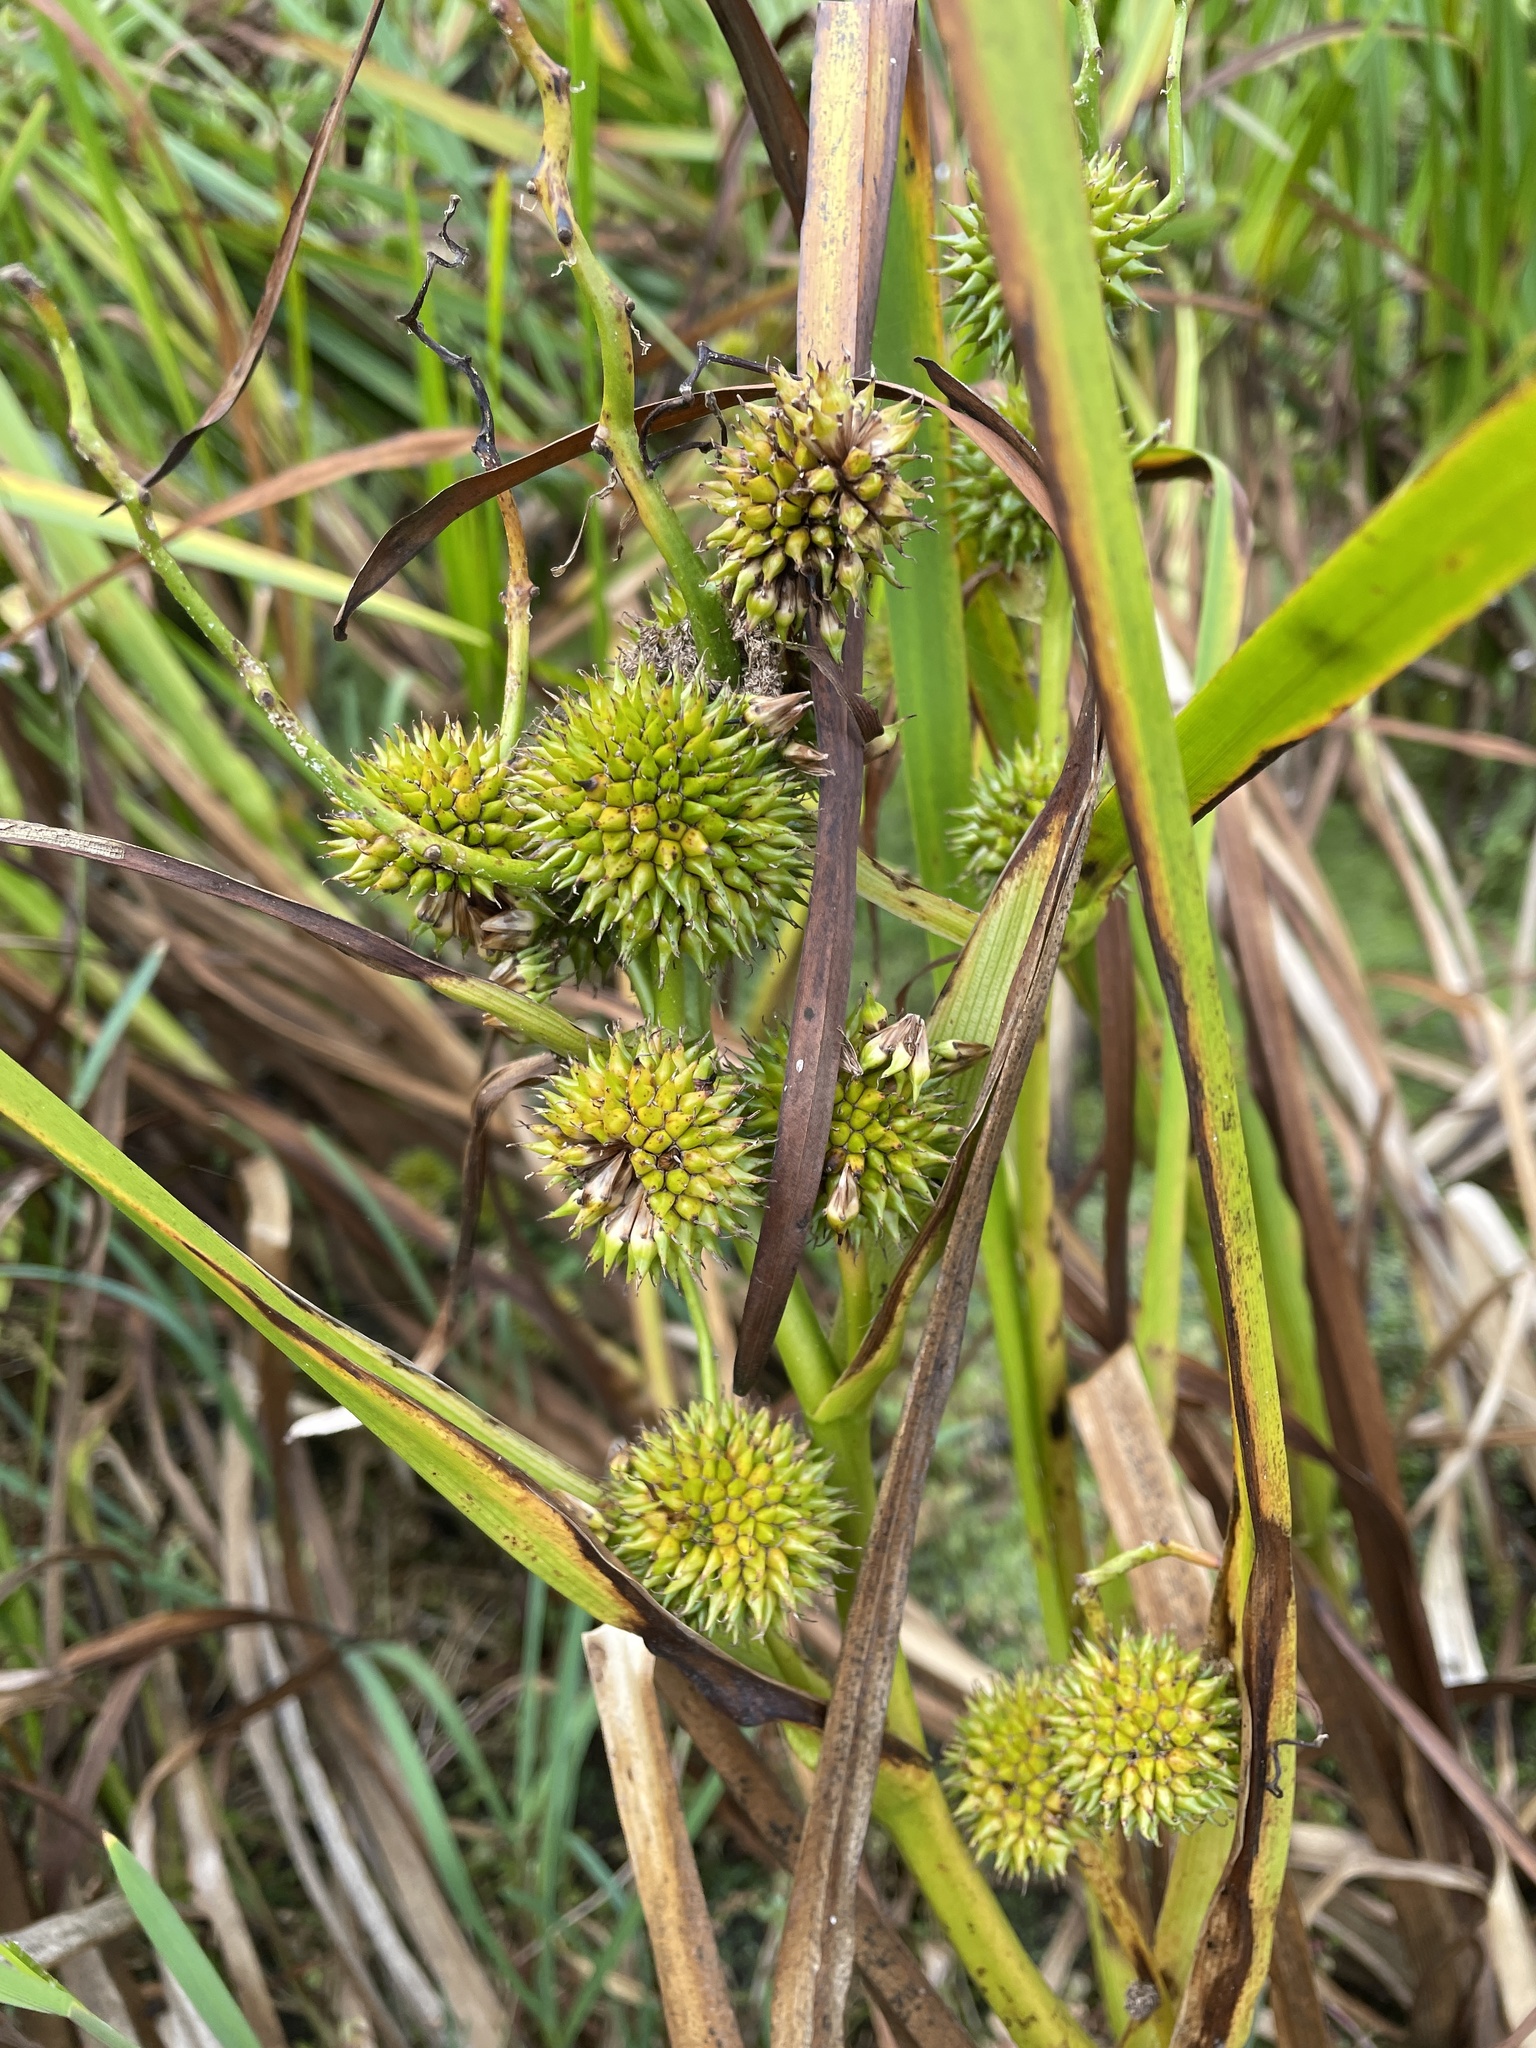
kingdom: Plantae
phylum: Tracheophyta
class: Liliopsida
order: Poales
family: Typhaceae
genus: Sparganium
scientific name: Sparganium erectum
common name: Branched bur-reed
